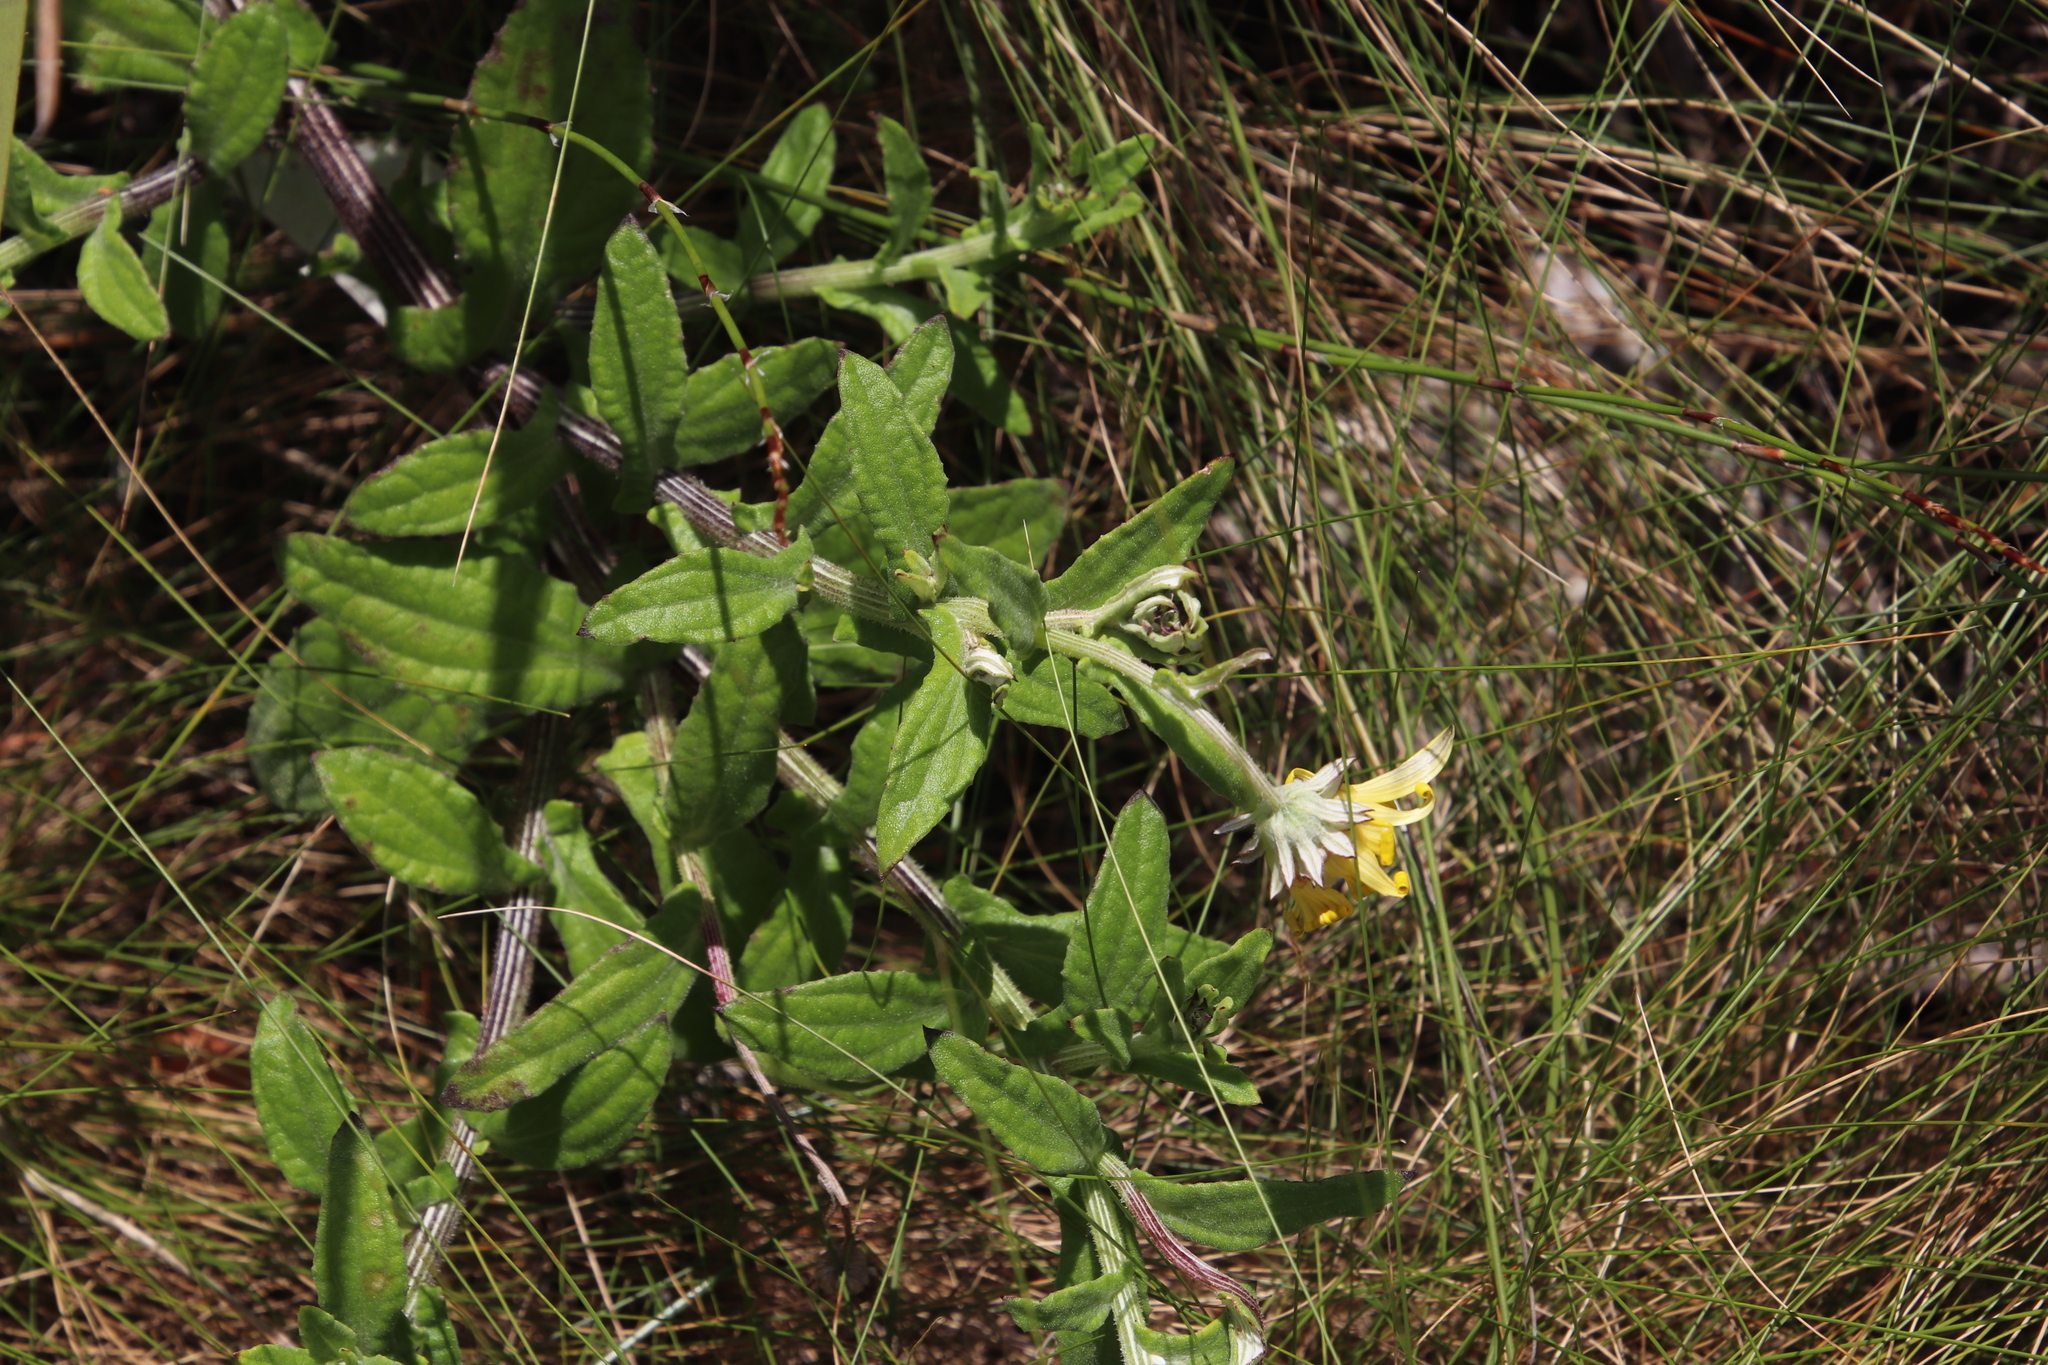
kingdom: Plantae
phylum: Tracheophyta
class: Magnoliopsida
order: Asterales
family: Asteraceae
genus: Arctotis
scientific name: Arctotis scabra
